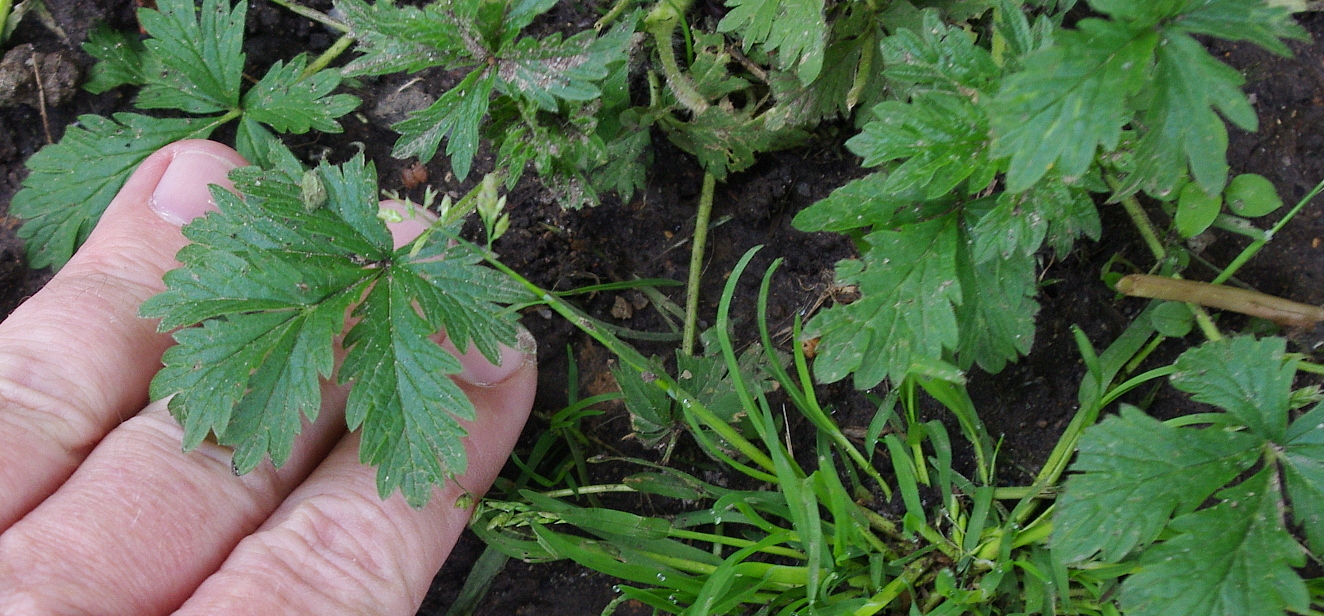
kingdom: Plantae
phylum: Tracheophyta
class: Magnoliopsida
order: Rosales
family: Rosaceae
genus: Potentilla
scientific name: Potentilla intermedia
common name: Downy cinquefoil
